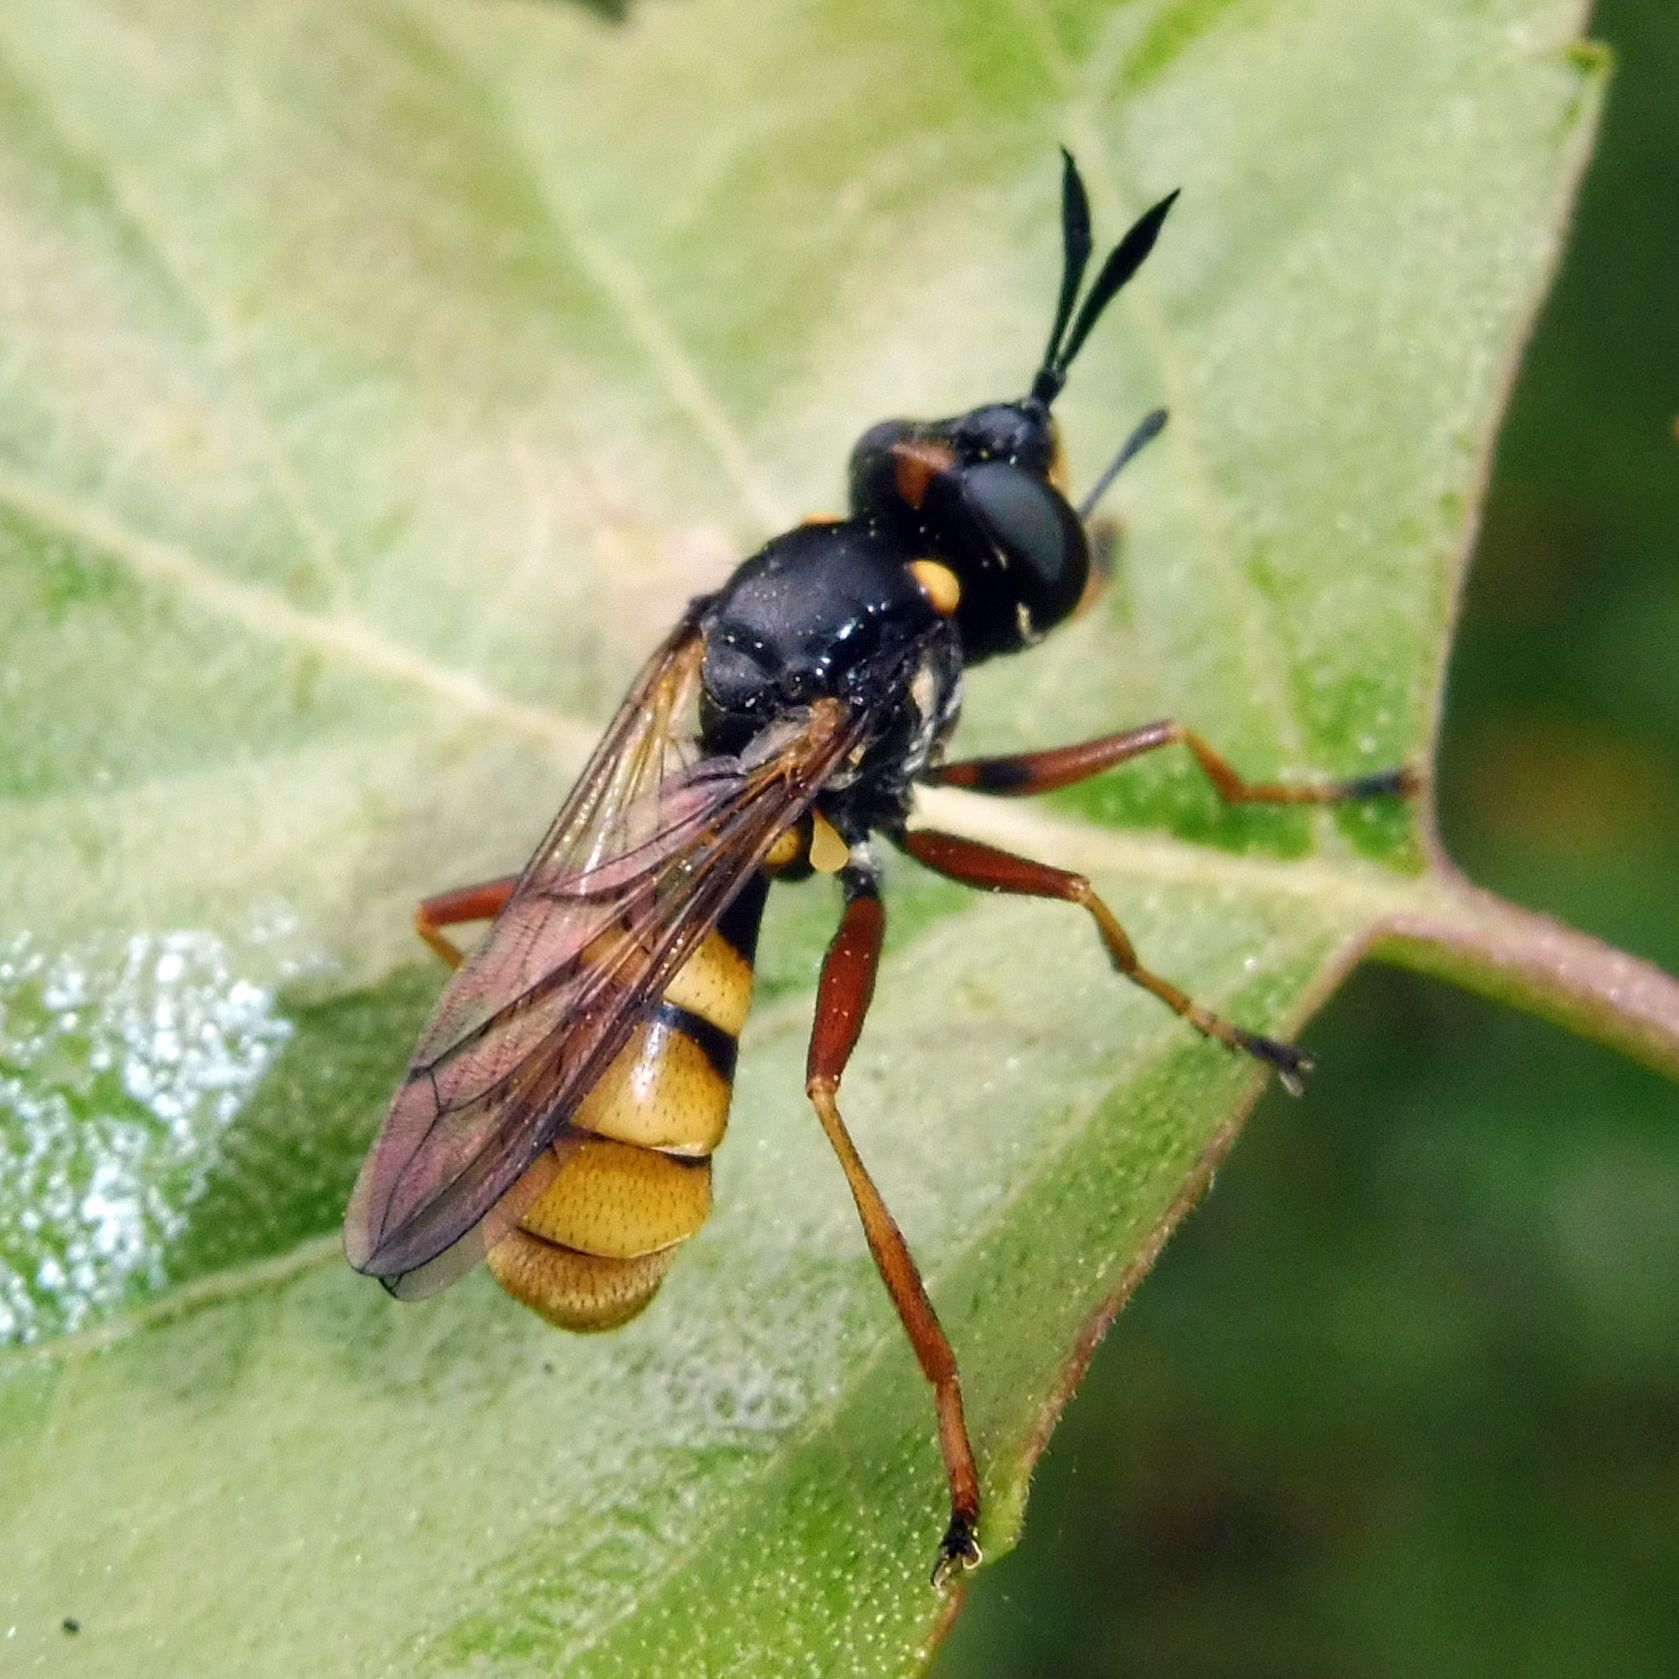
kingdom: Animalia
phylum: Arthropoda
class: Insecta
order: Diptera
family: Conopidae
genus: Conops
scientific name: Conops quadrifasciatus
